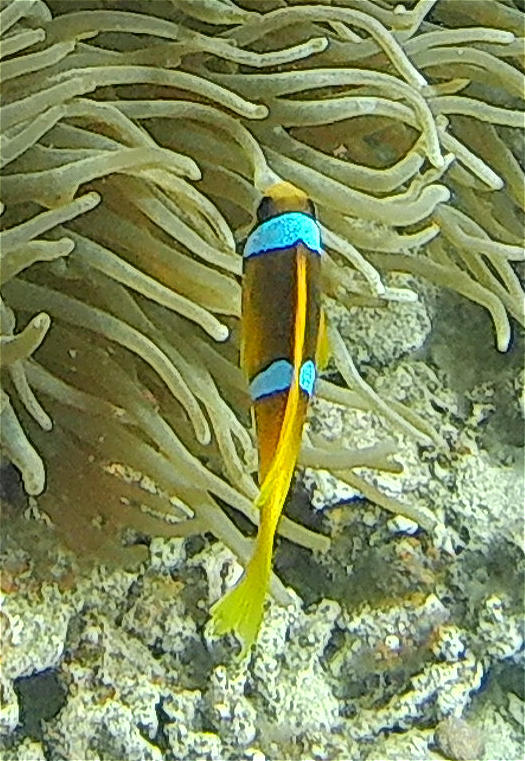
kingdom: Animalia
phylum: Chordata
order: Perciformes
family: Pomacentridae
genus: Amphiprion
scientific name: Amphiprion bicinctus
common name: Two-banded anemonefish
